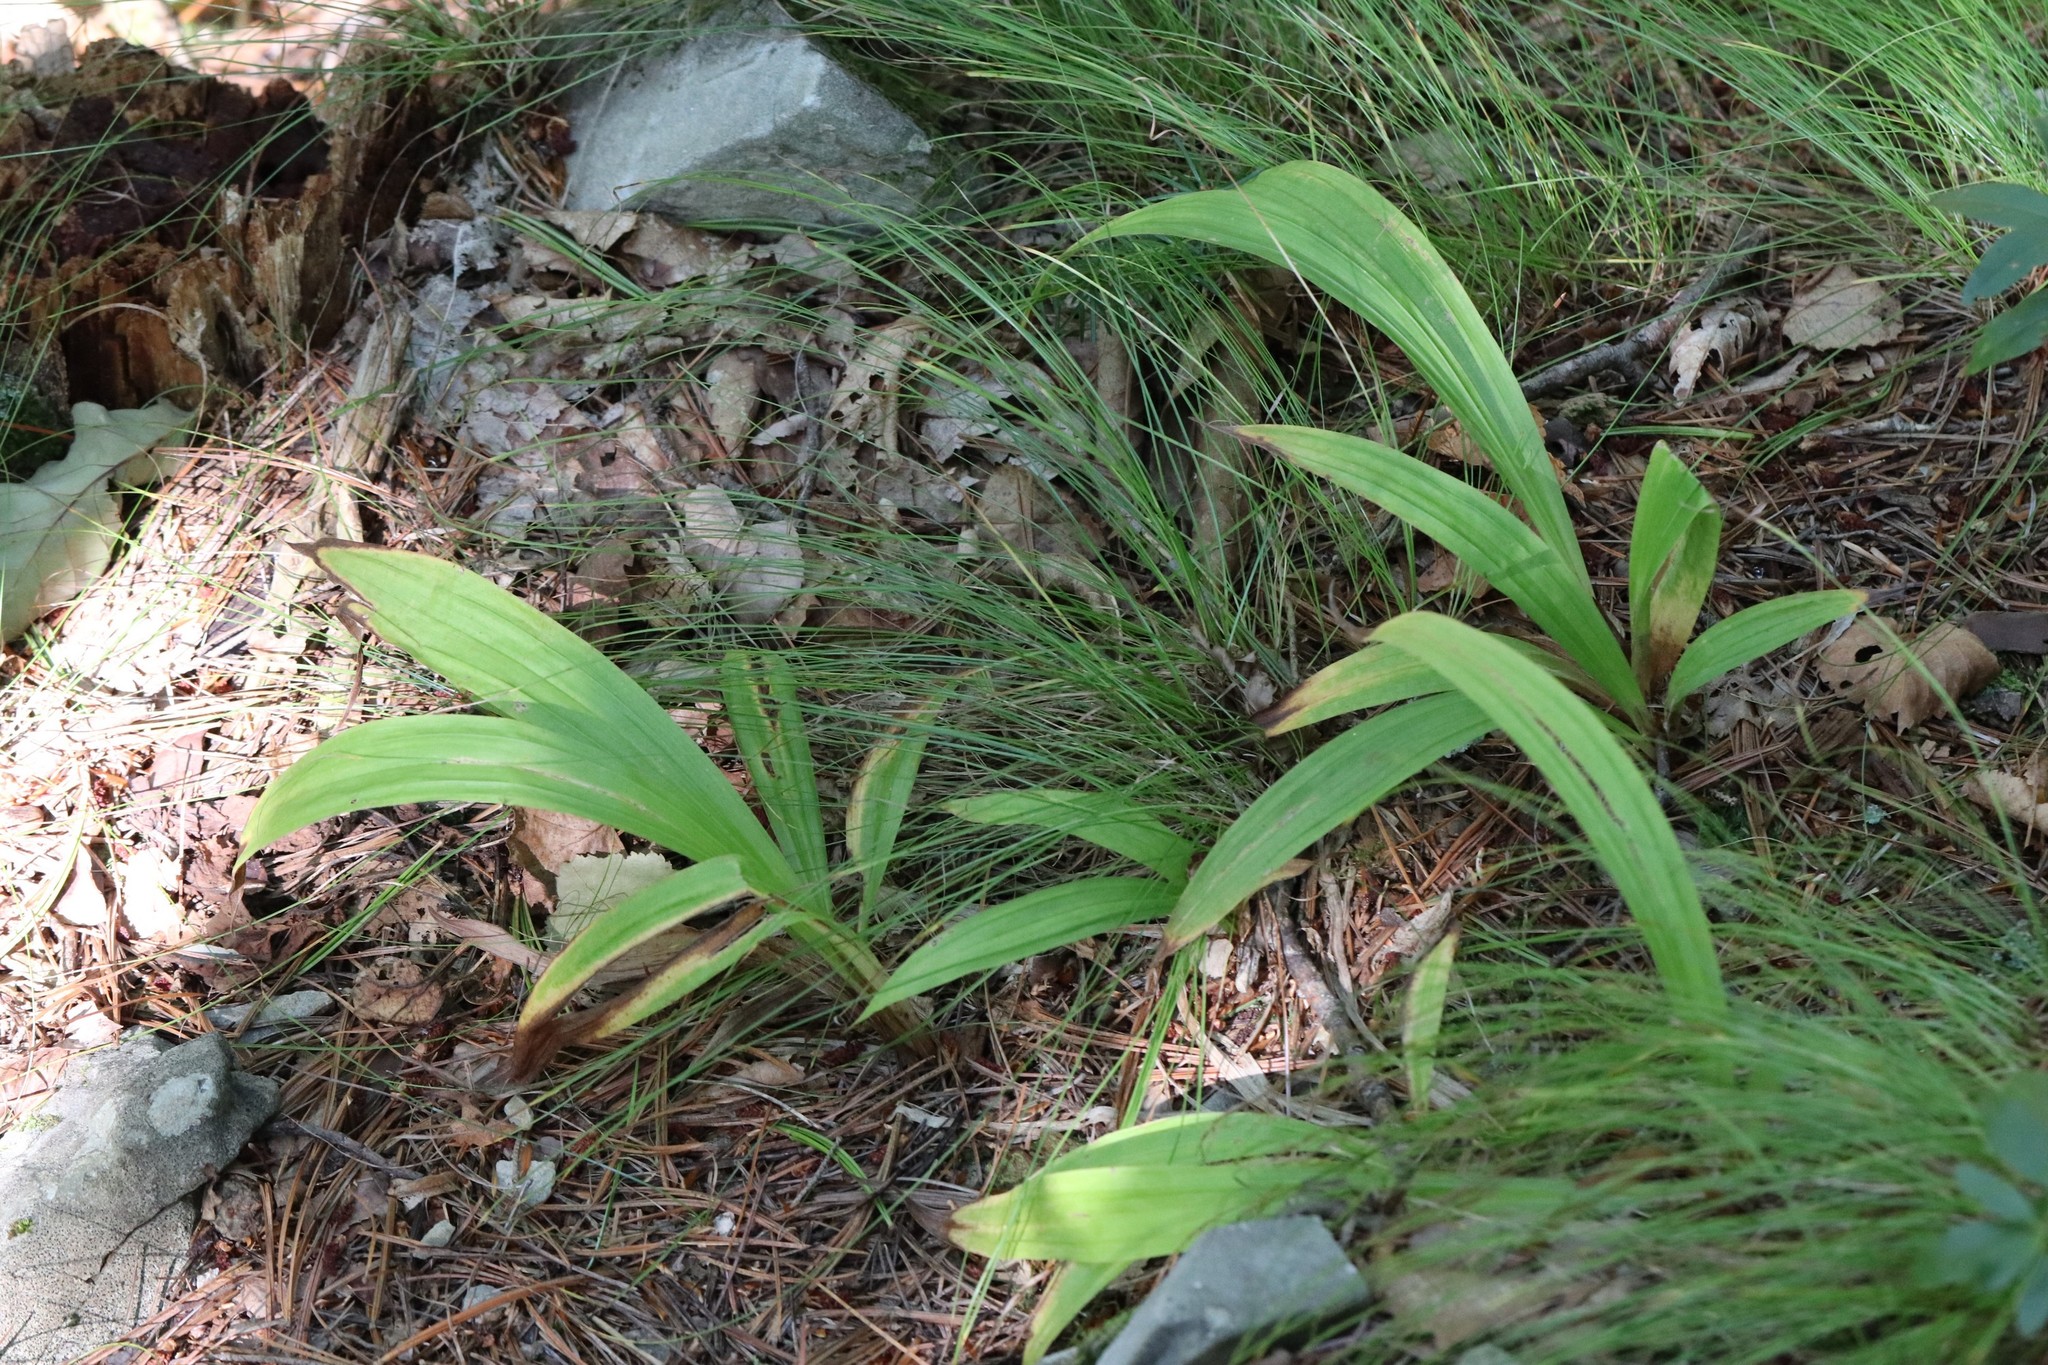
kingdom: Plantae
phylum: Tracheophyta
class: Liliopsida
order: Poales
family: Cyperaceae
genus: Carex
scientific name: Carex siderosticta
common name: Broadleaf sedge
